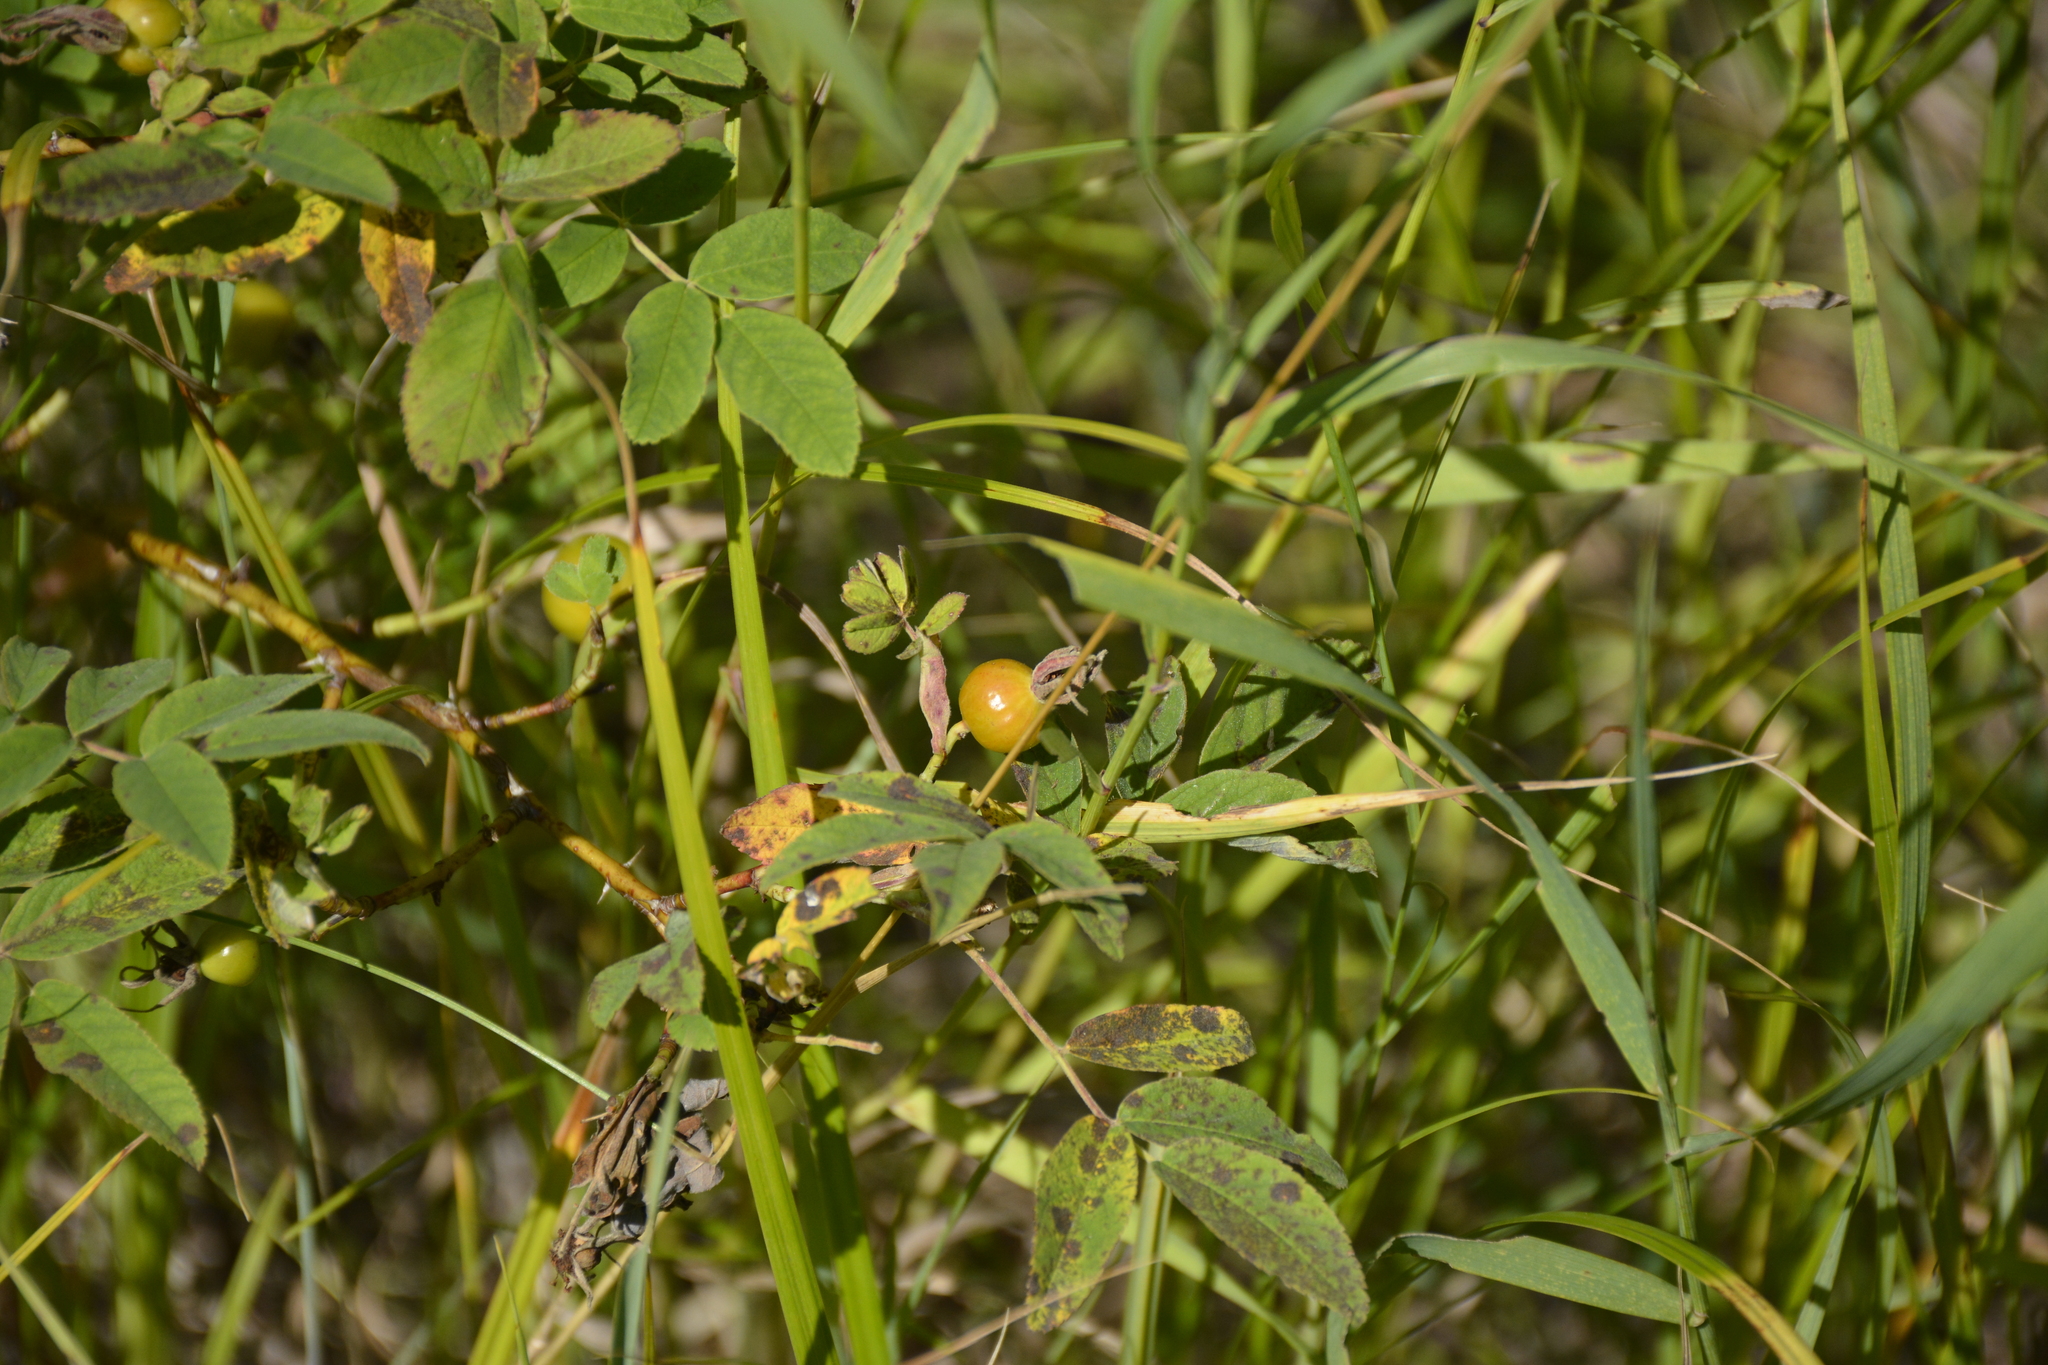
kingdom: Plantae
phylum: Tracheophyta
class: Magnoliopsida
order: Rosales
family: Rosaceae
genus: Rosa
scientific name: Rosa majalis
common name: Cinnamon rose
